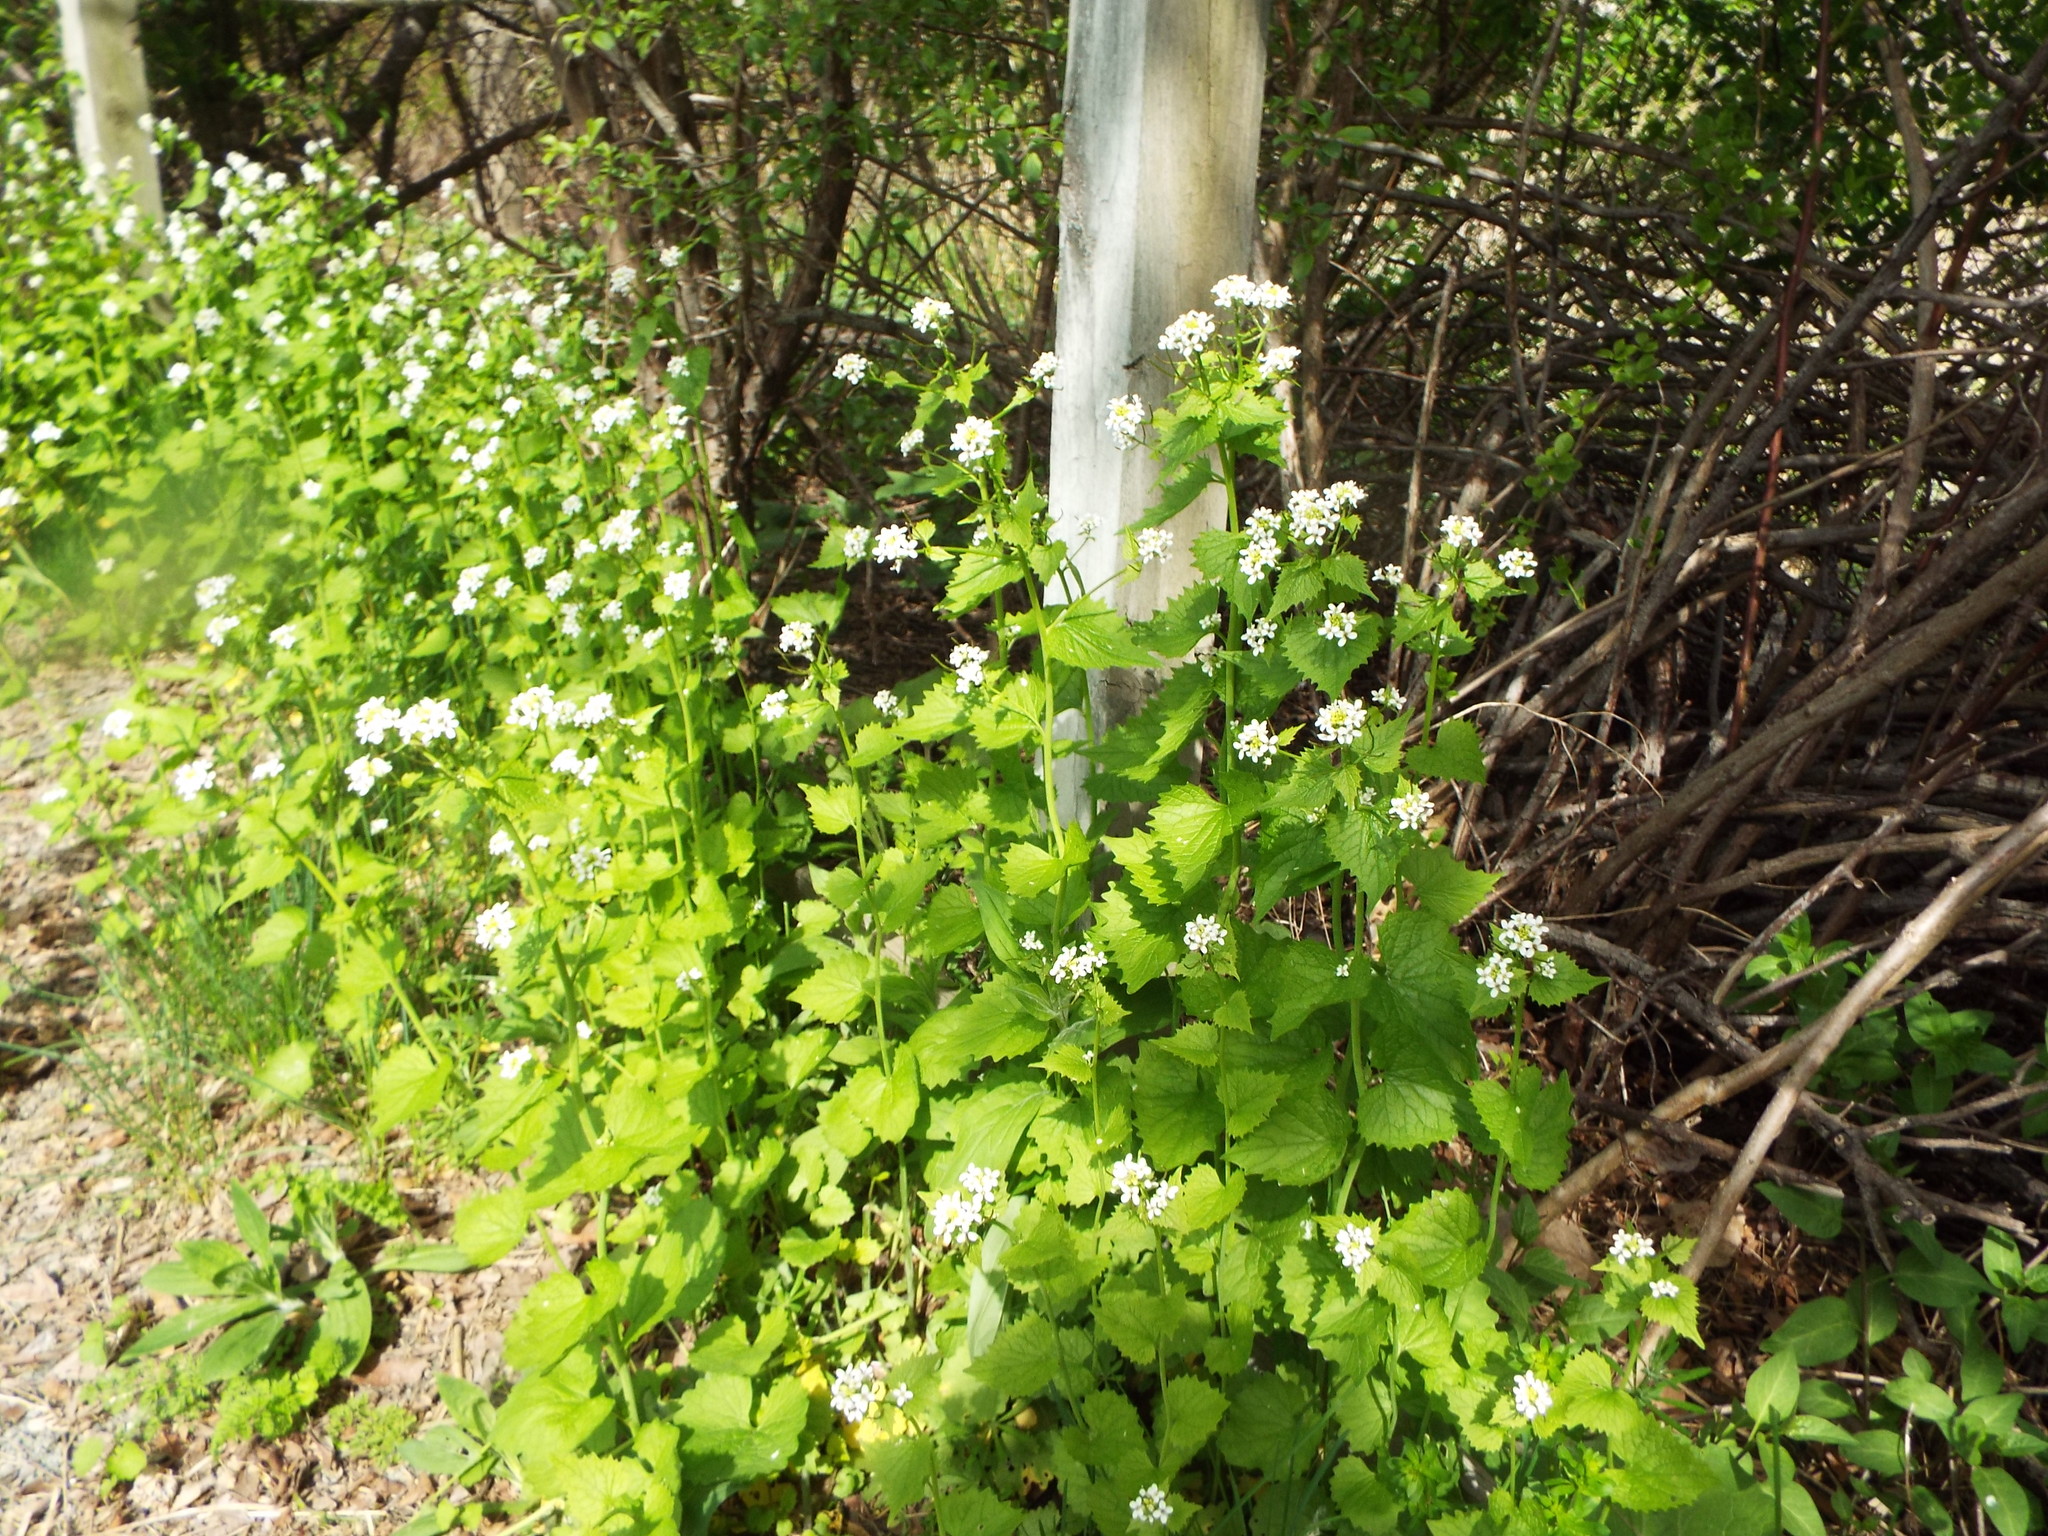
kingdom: Plantae
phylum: Tracheophyta
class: Magnoliopsida
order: Brassicales
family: Brassicaceae
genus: Alliaria
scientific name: Alliaria petiolata
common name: Garlic mustard
